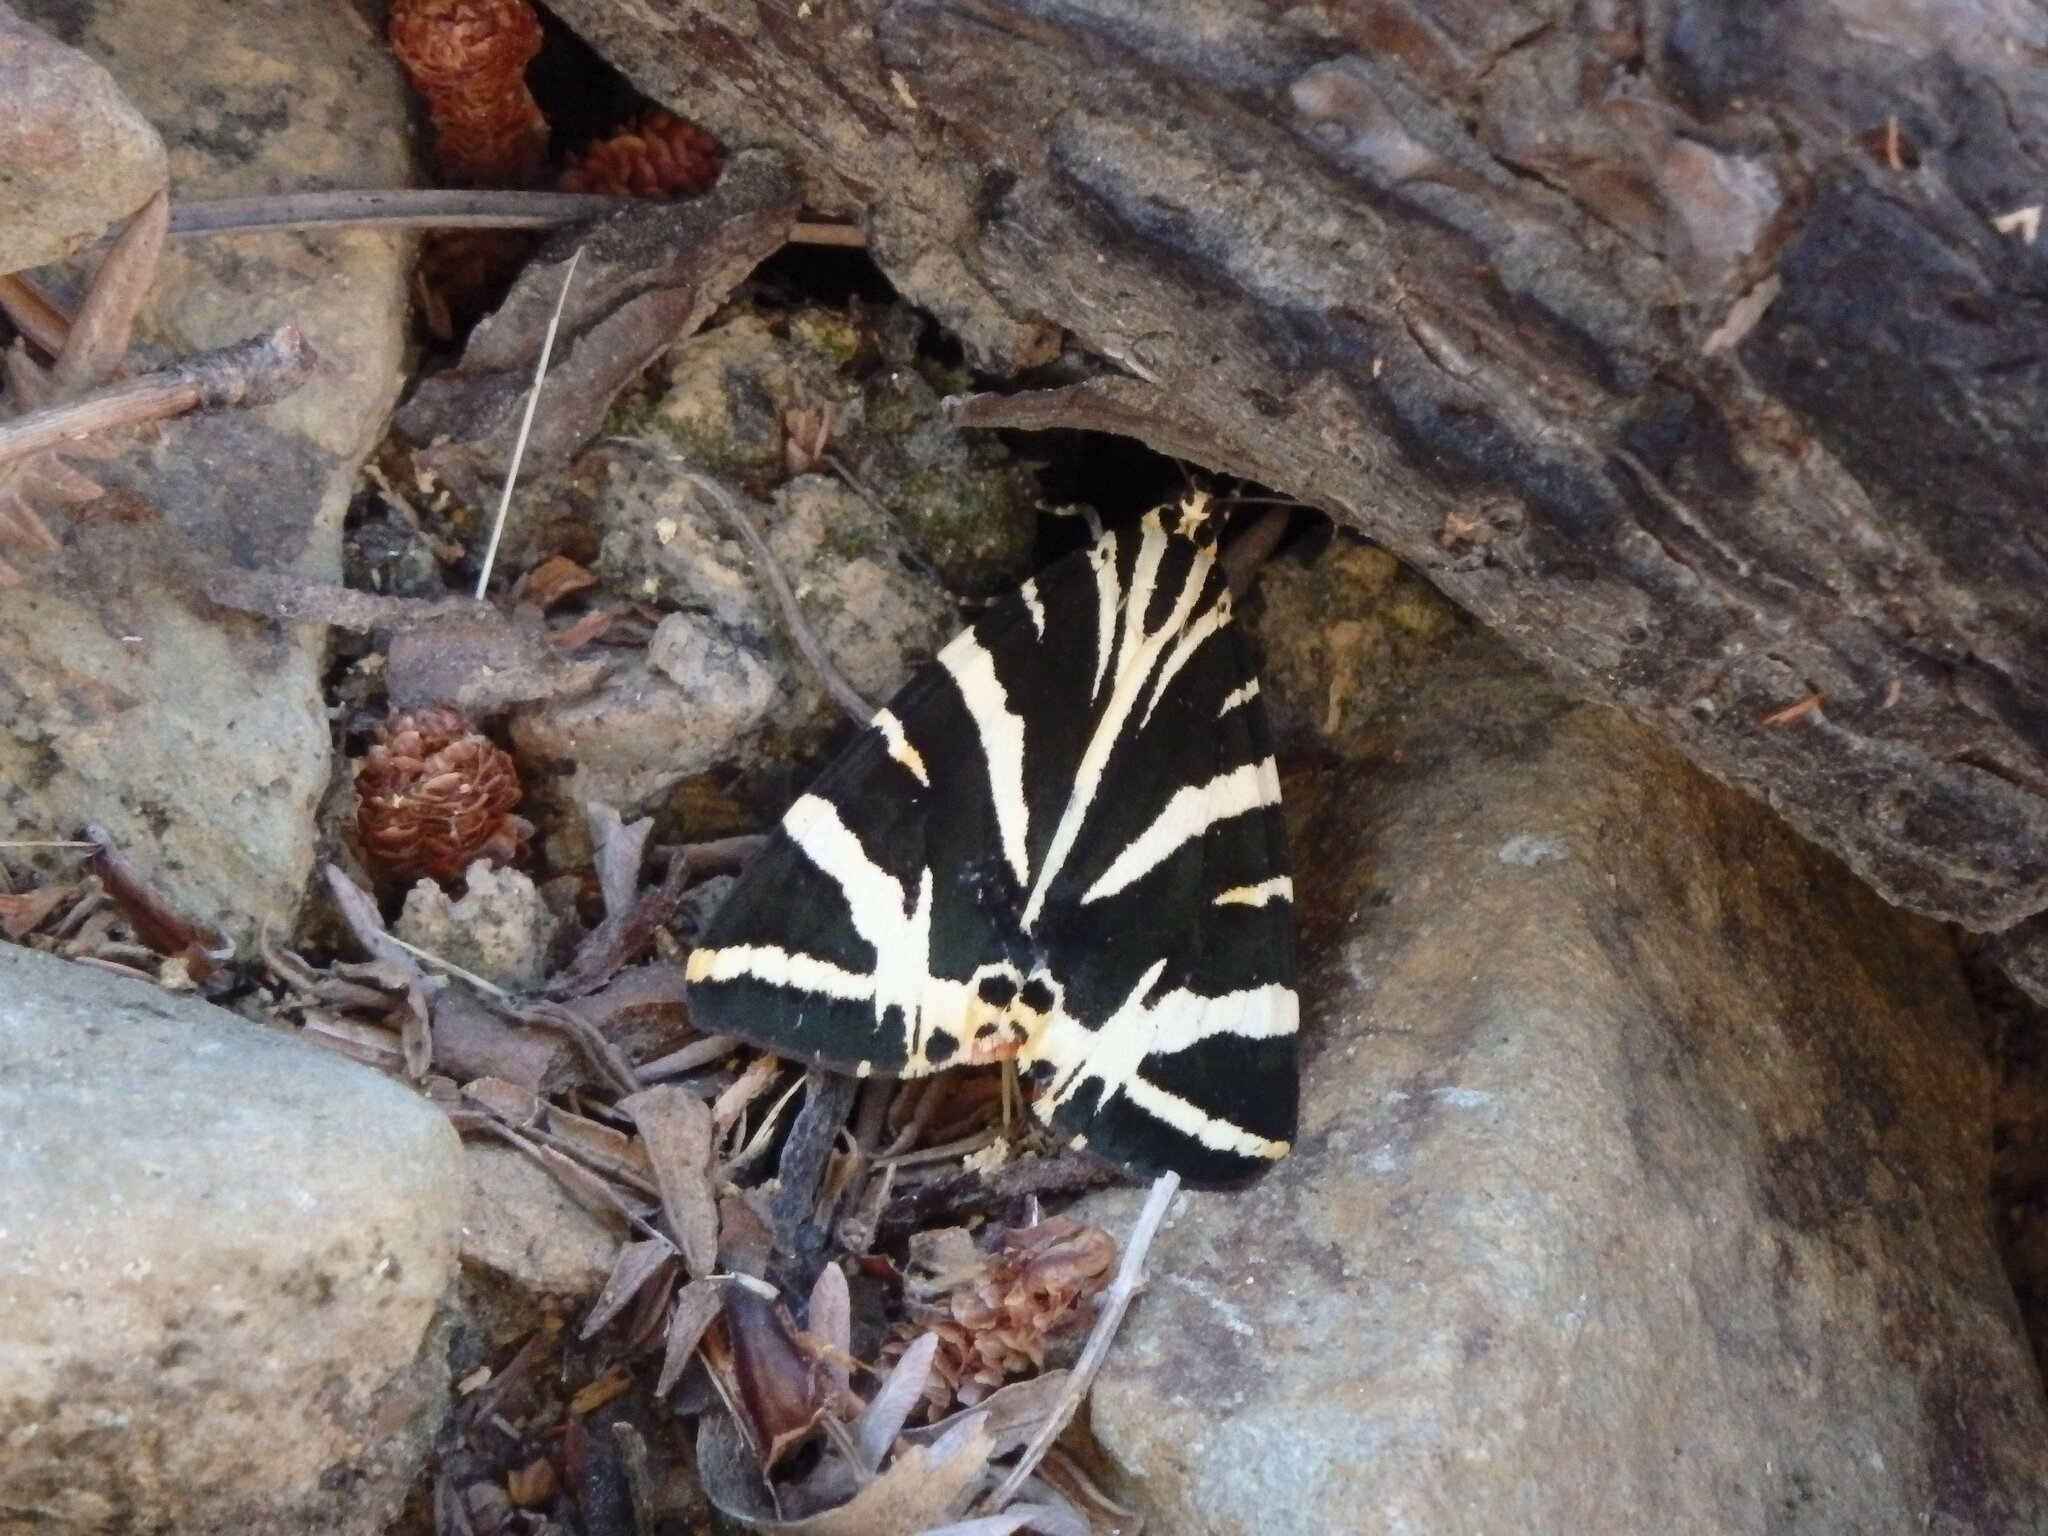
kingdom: Animalia
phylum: Arthropoda
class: Insecta
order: Lepidoptera
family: Erebidae
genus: Euplagia
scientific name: Euplagia quadripunctaria
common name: Jersey tiger
